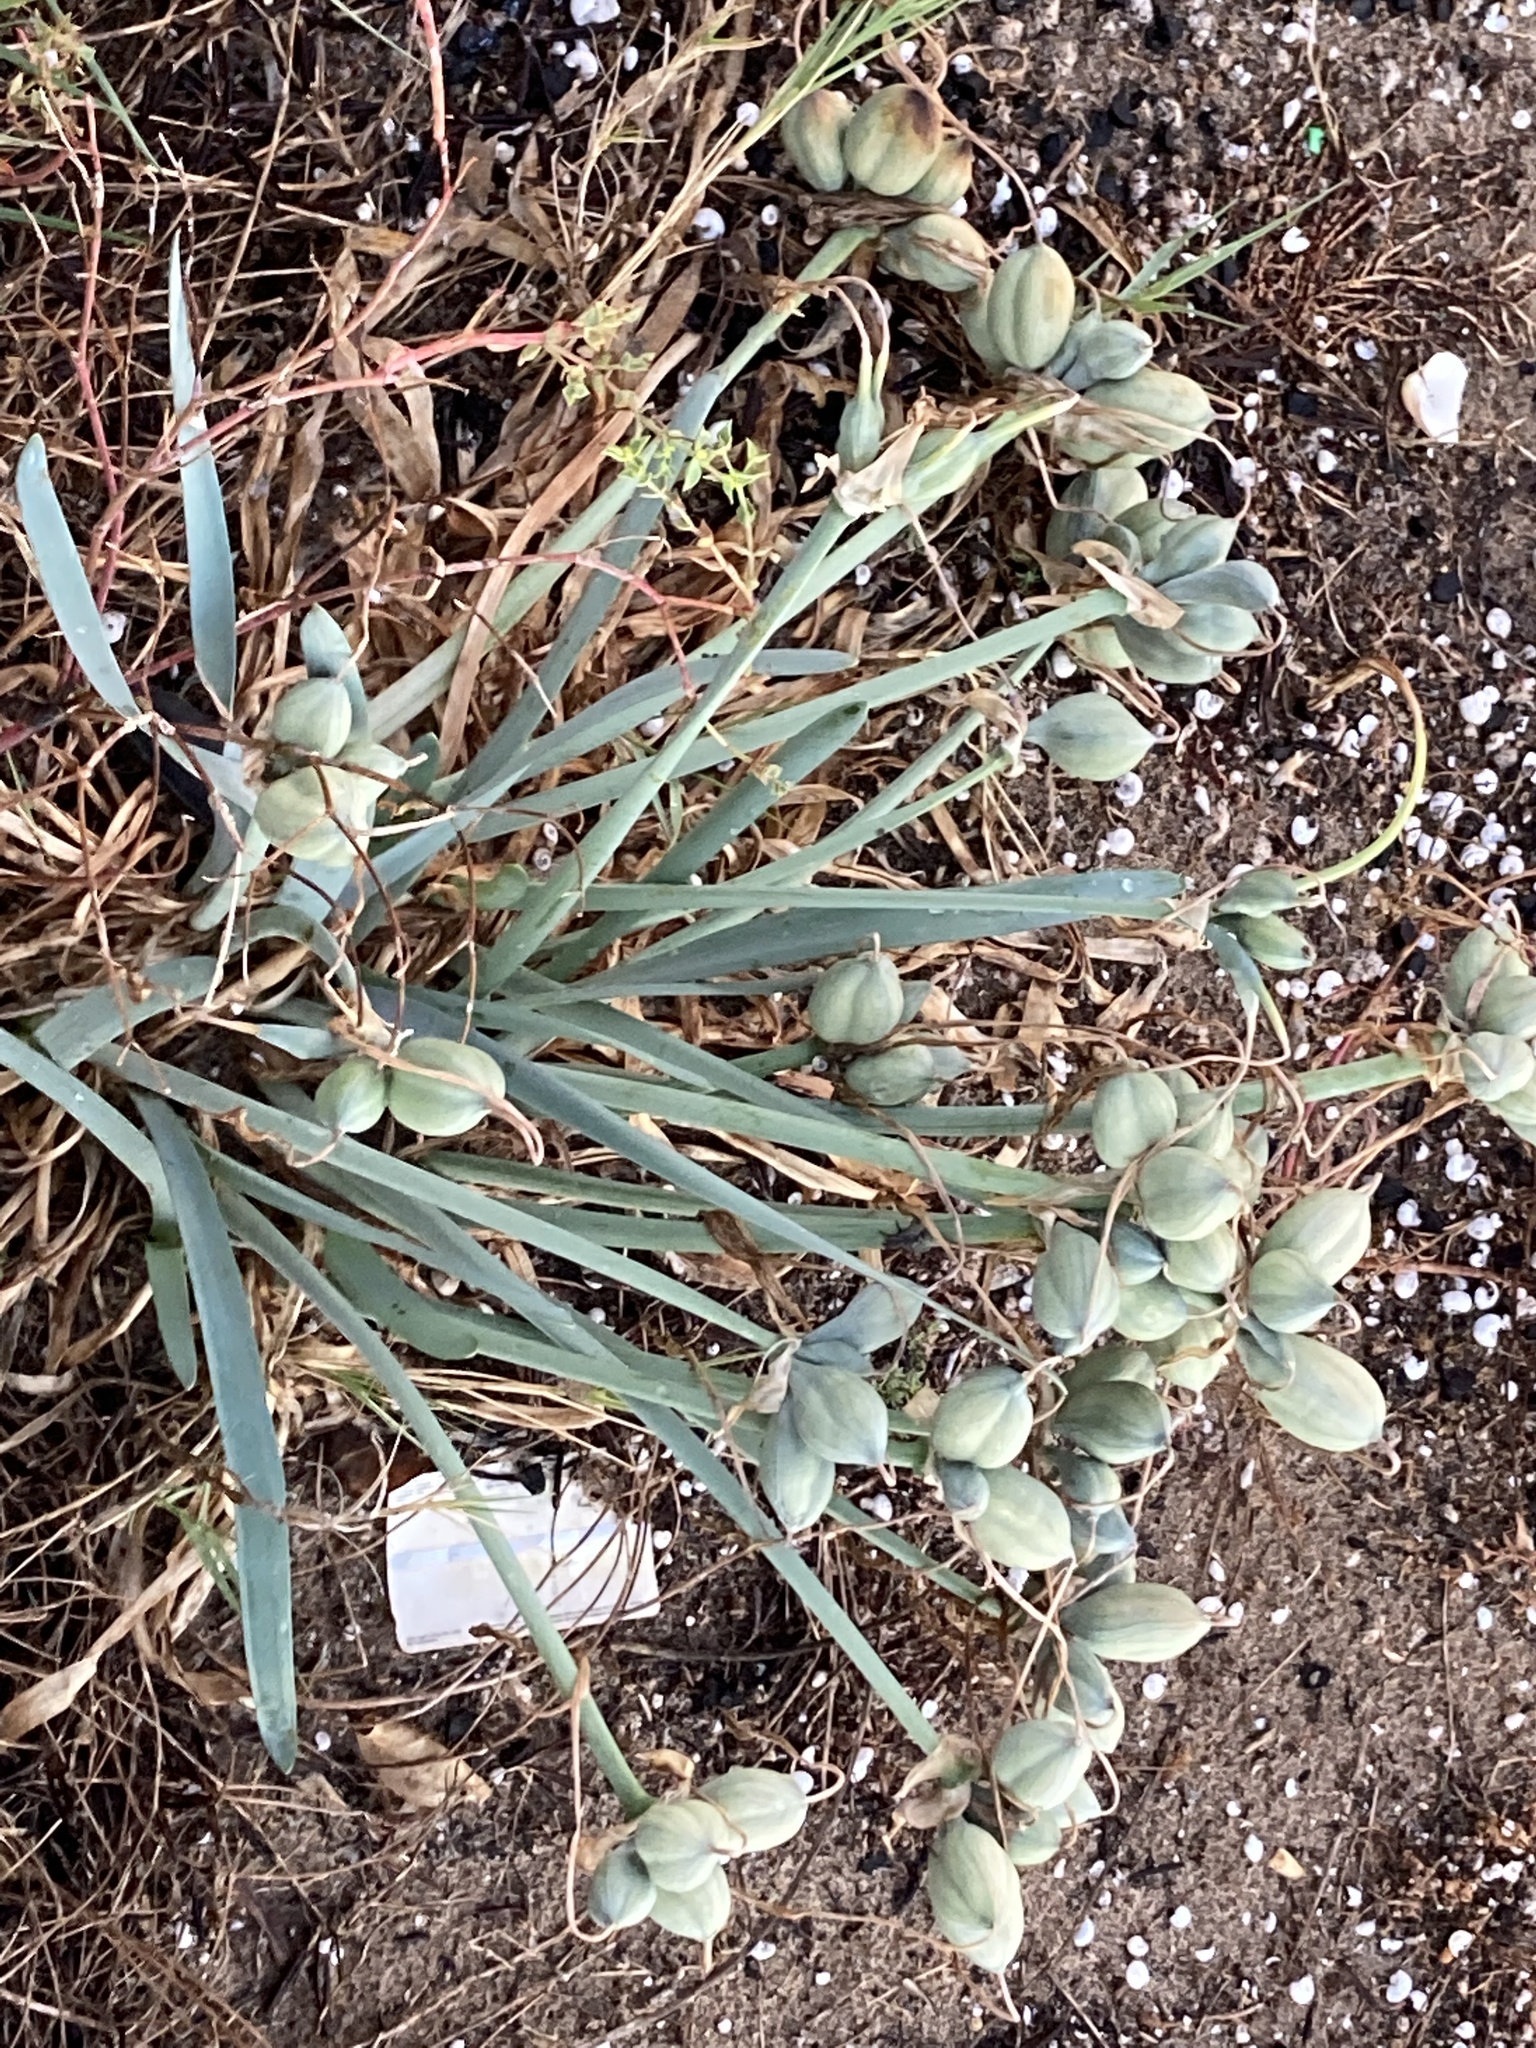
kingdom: Plantae
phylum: Tracheophyta
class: Liliopsida
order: Asparagales
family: Amaryllidaceae
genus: Pancratium
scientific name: Pancratium maritimum
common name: Sea-daffodil
